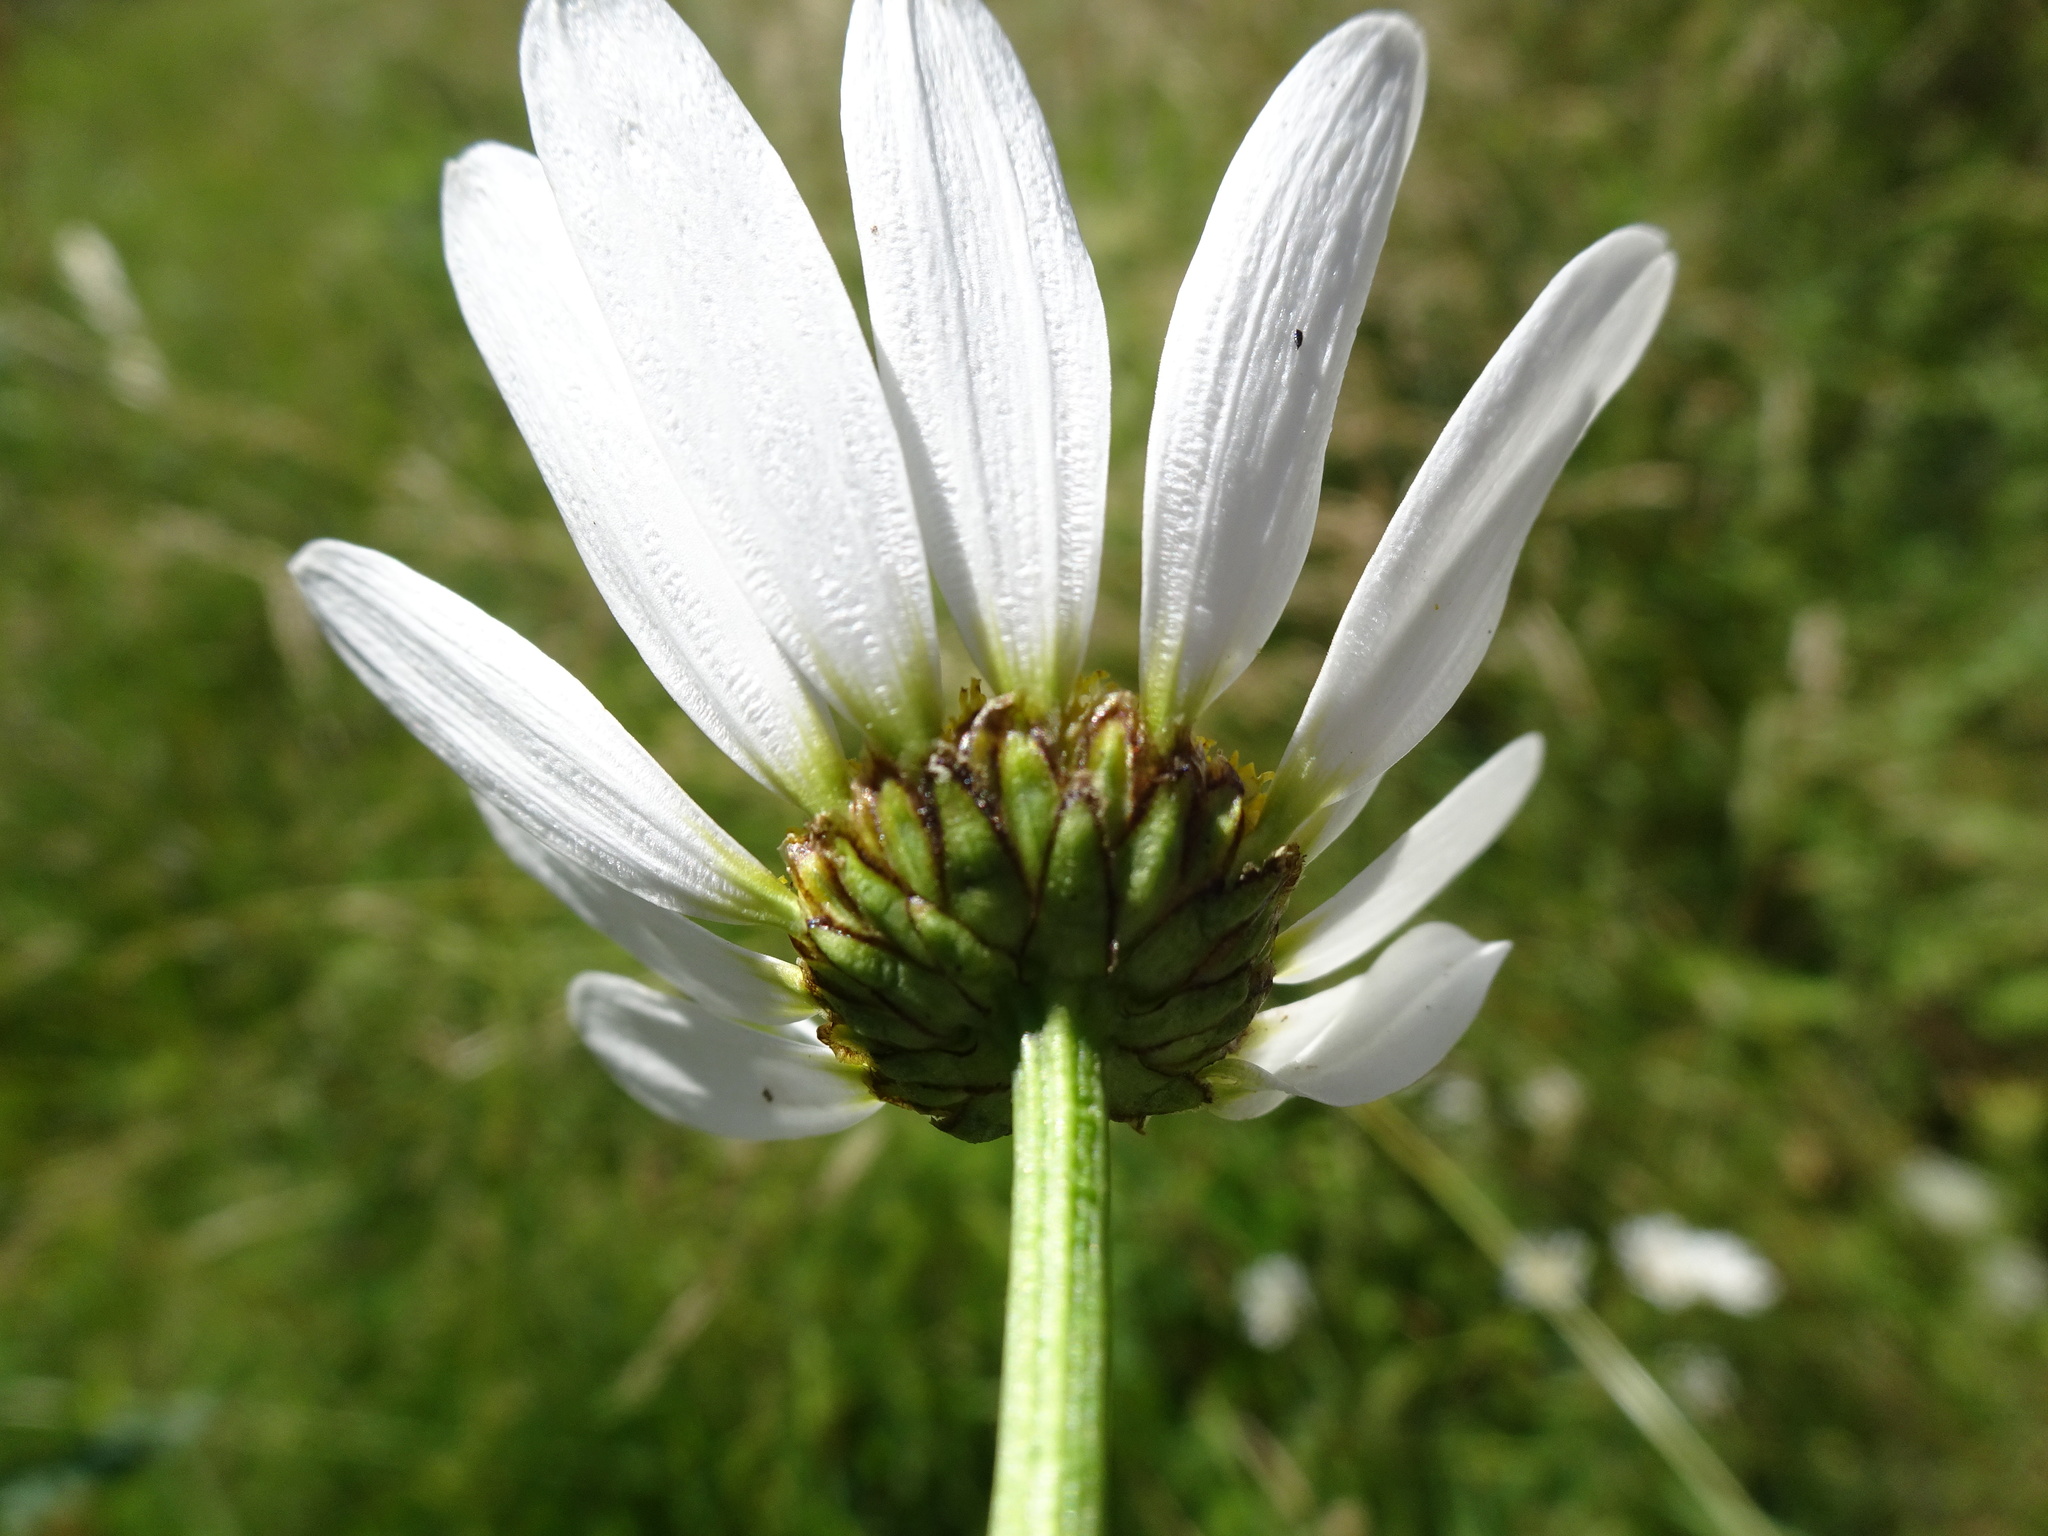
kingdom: Plantae
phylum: Tracheophyta
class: Magnoliopsida
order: Asterales
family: Asteraceae
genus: Leucanthemum
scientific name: Leucanthemum vulgare
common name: Oxeye daisy
